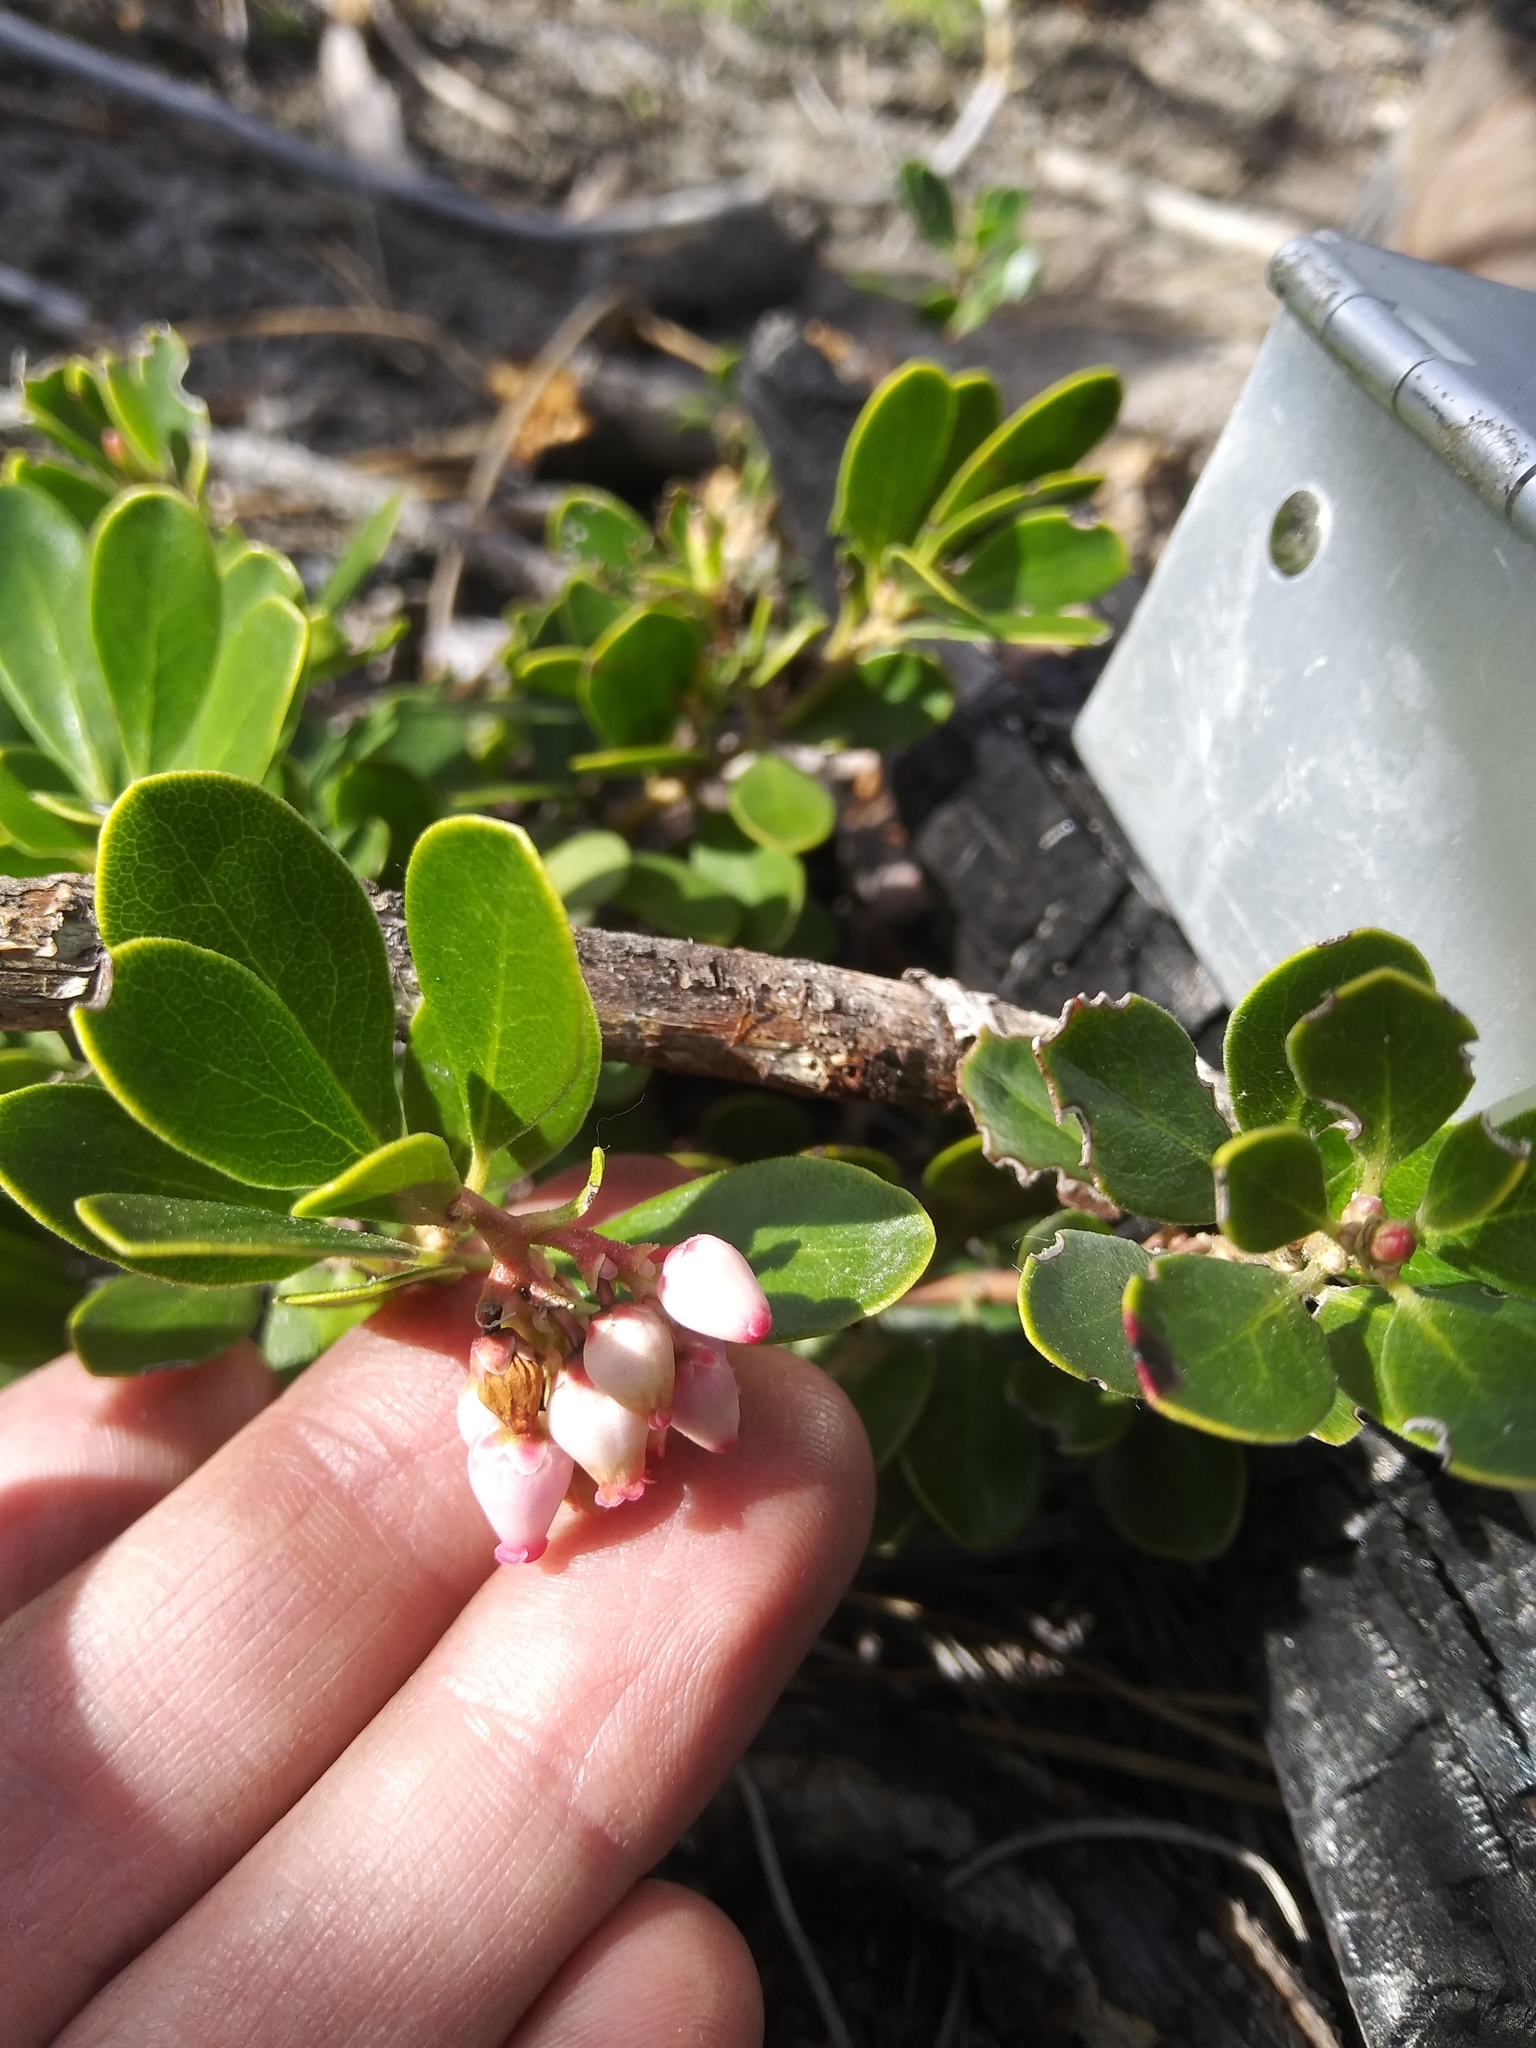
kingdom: Plantae
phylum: Tracheophyta
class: Magnoliopsida
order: Ericales
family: Ericaceae
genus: Arctostaphylos
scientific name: Arctostaphylos nevadensis
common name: Pinemat manzanita
